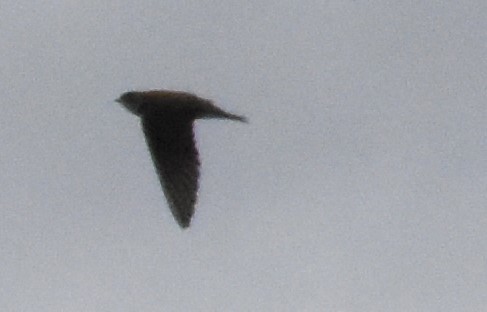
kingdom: Animalia
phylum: Chordata
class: Aves
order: Passeriformes
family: Hirundinidae
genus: Riparia
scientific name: Riparia riparia
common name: Sand martin
